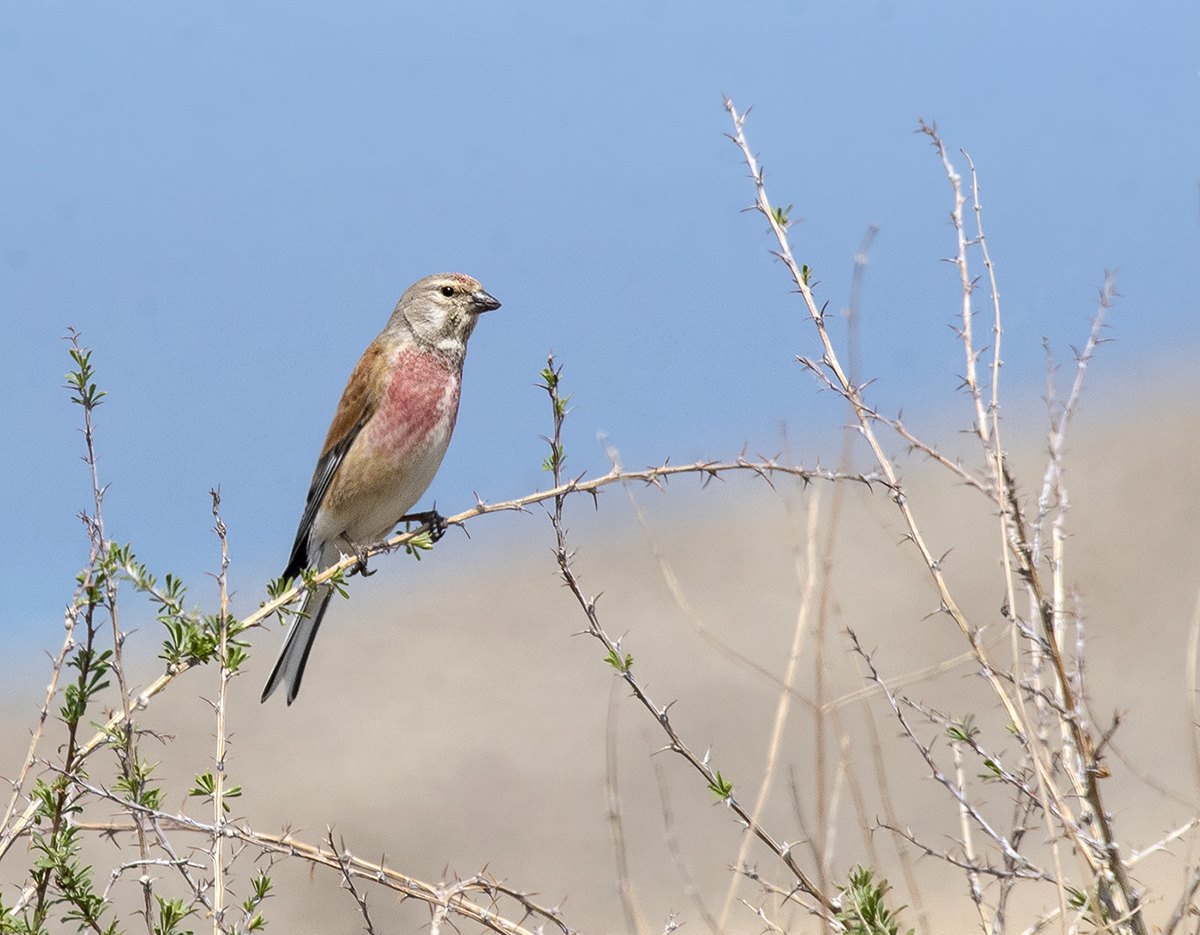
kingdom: Animalia
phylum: Chordata
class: Aves
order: Passeriformes
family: Fringillidae
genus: Linaria
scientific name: Linaria cannabina
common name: Common linnet
